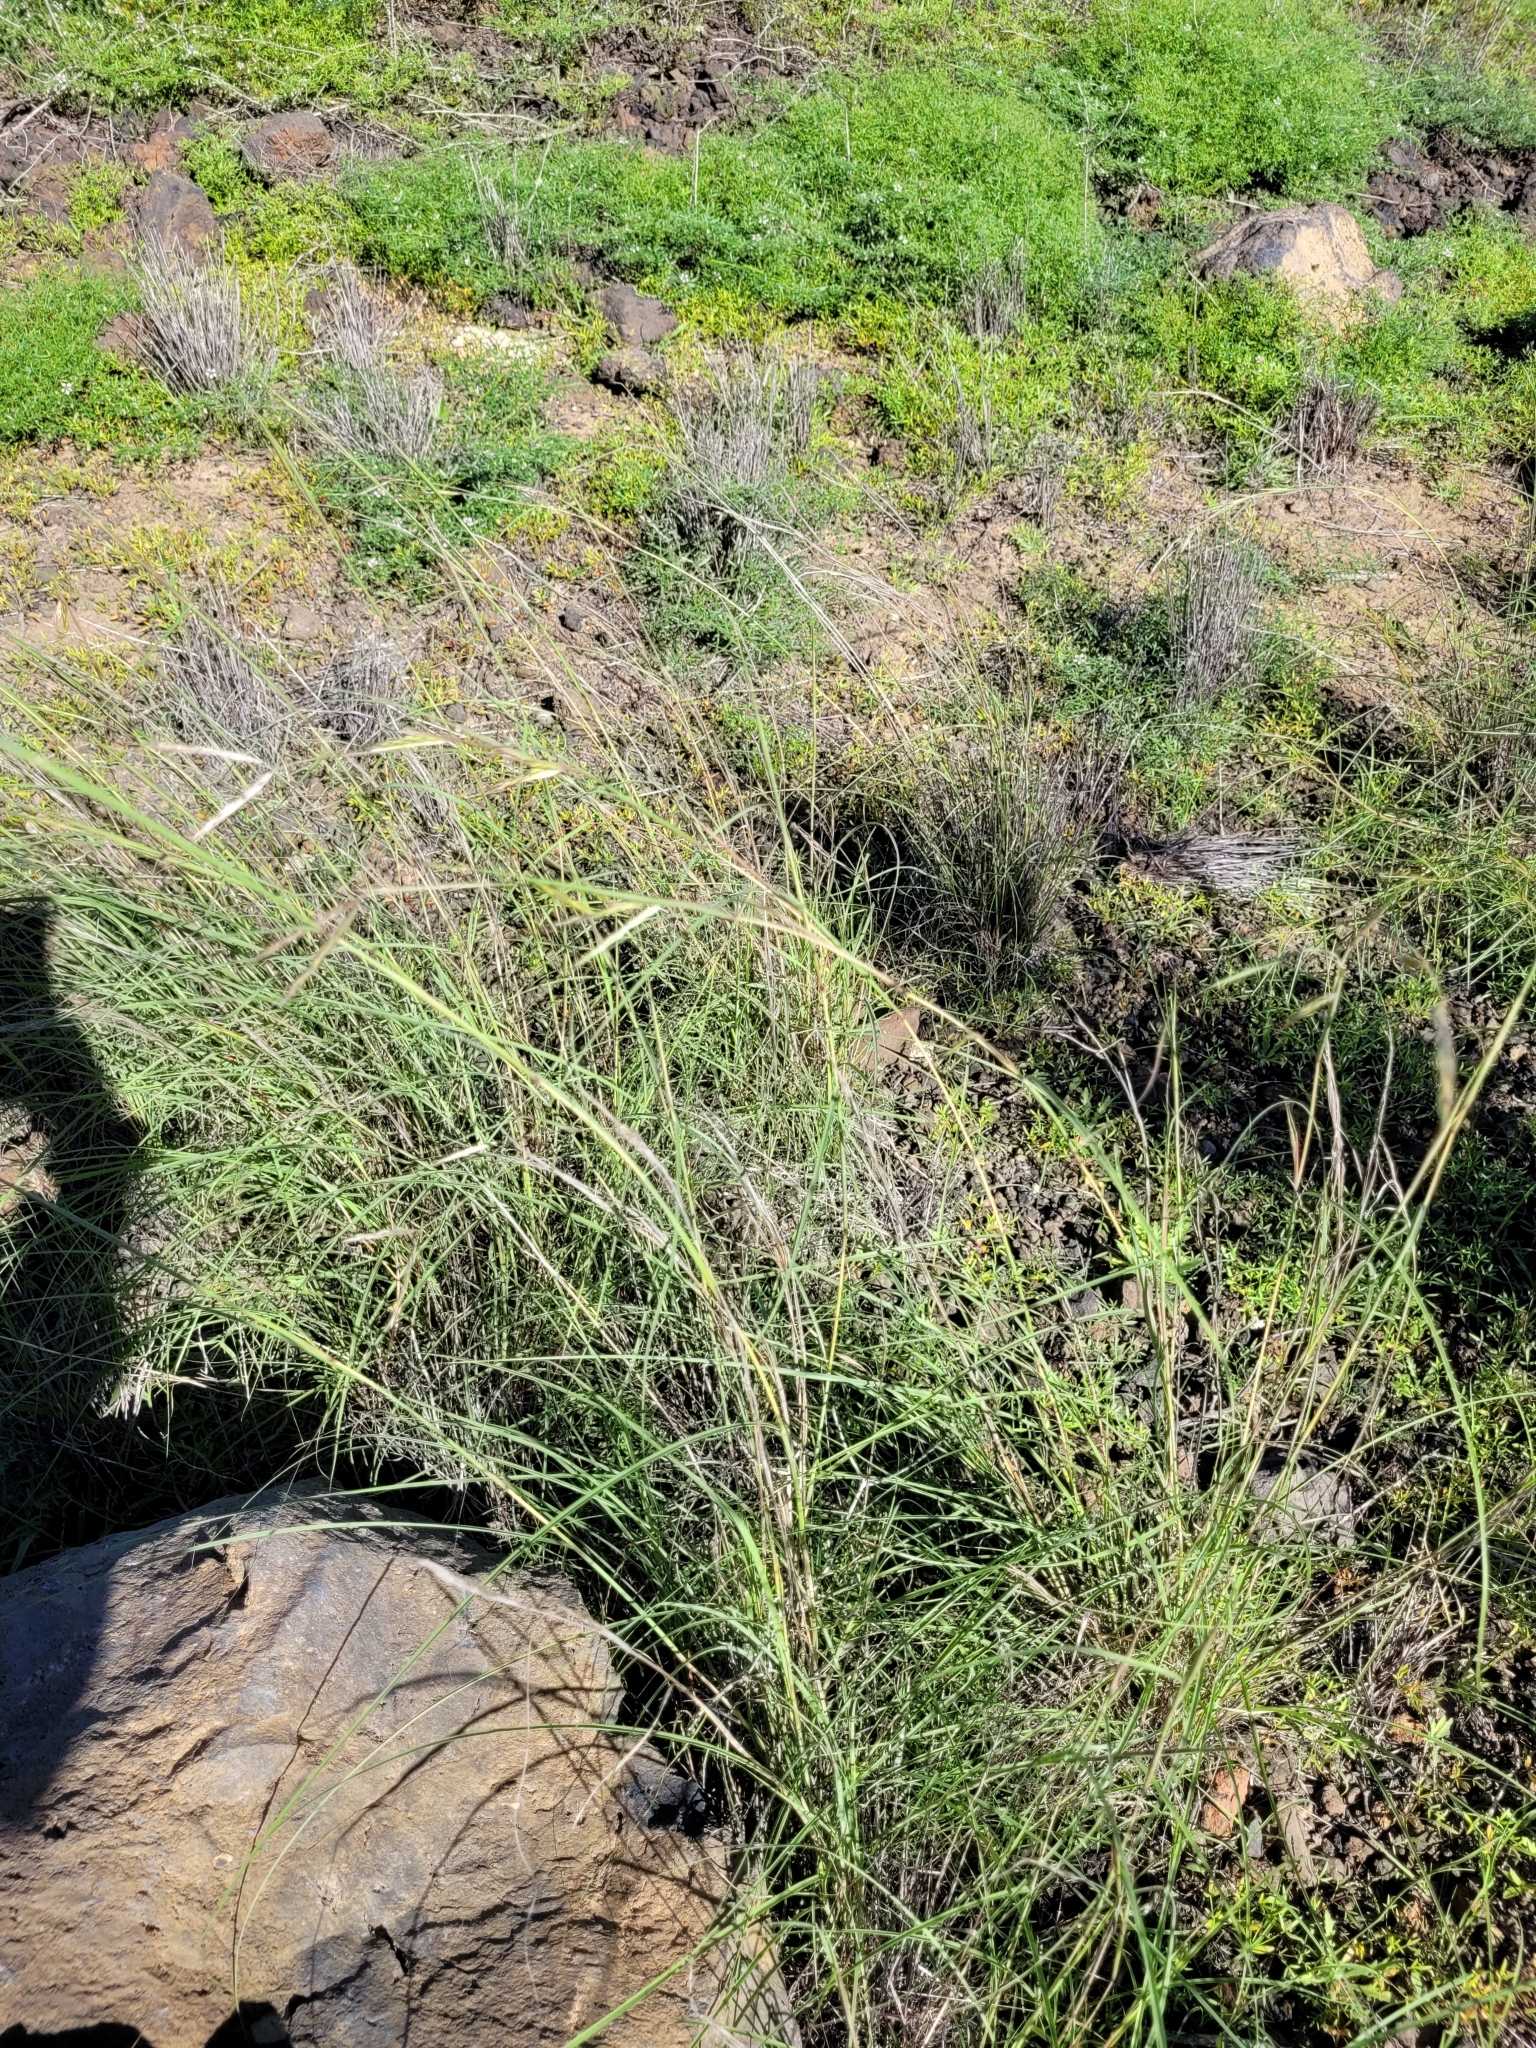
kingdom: Plantae
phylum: Tracheophyta
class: Liliopsida
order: Poales
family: Poaceae
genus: Hyparrhenia
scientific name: Hyparrhenia hirta
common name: Thatching grass
